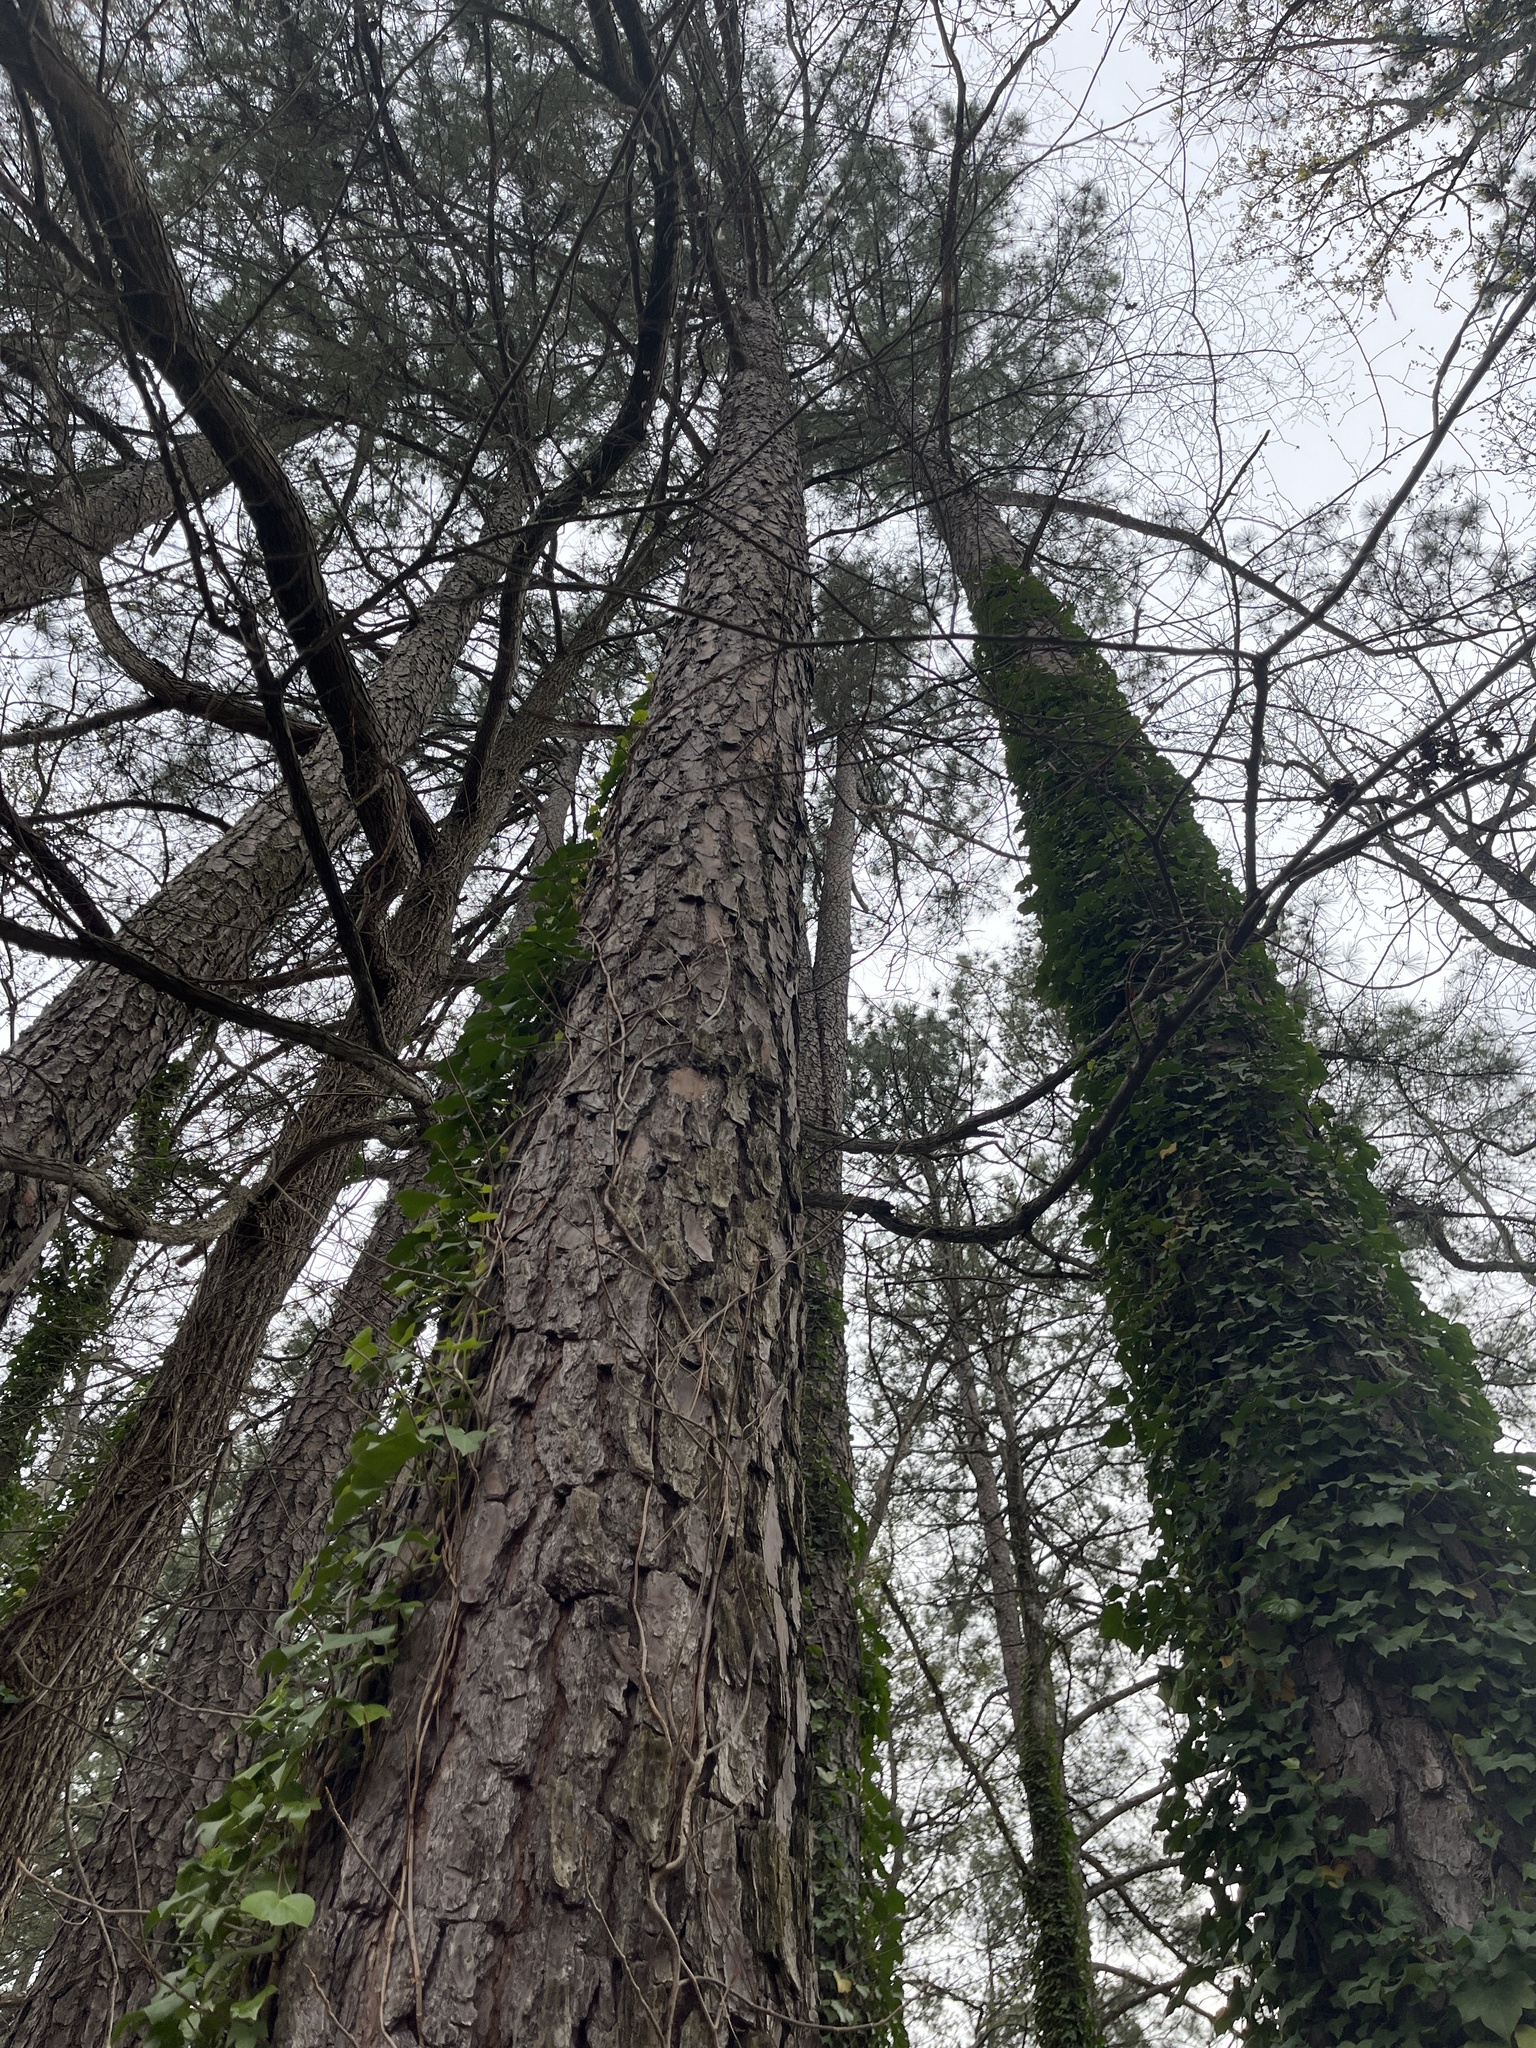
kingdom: Plantae
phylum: Tracheophyta
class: Pinopsida
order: Pinales
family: Pinaceae
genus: Pinus
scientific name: Pinus taeda
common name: Loblolly pine
